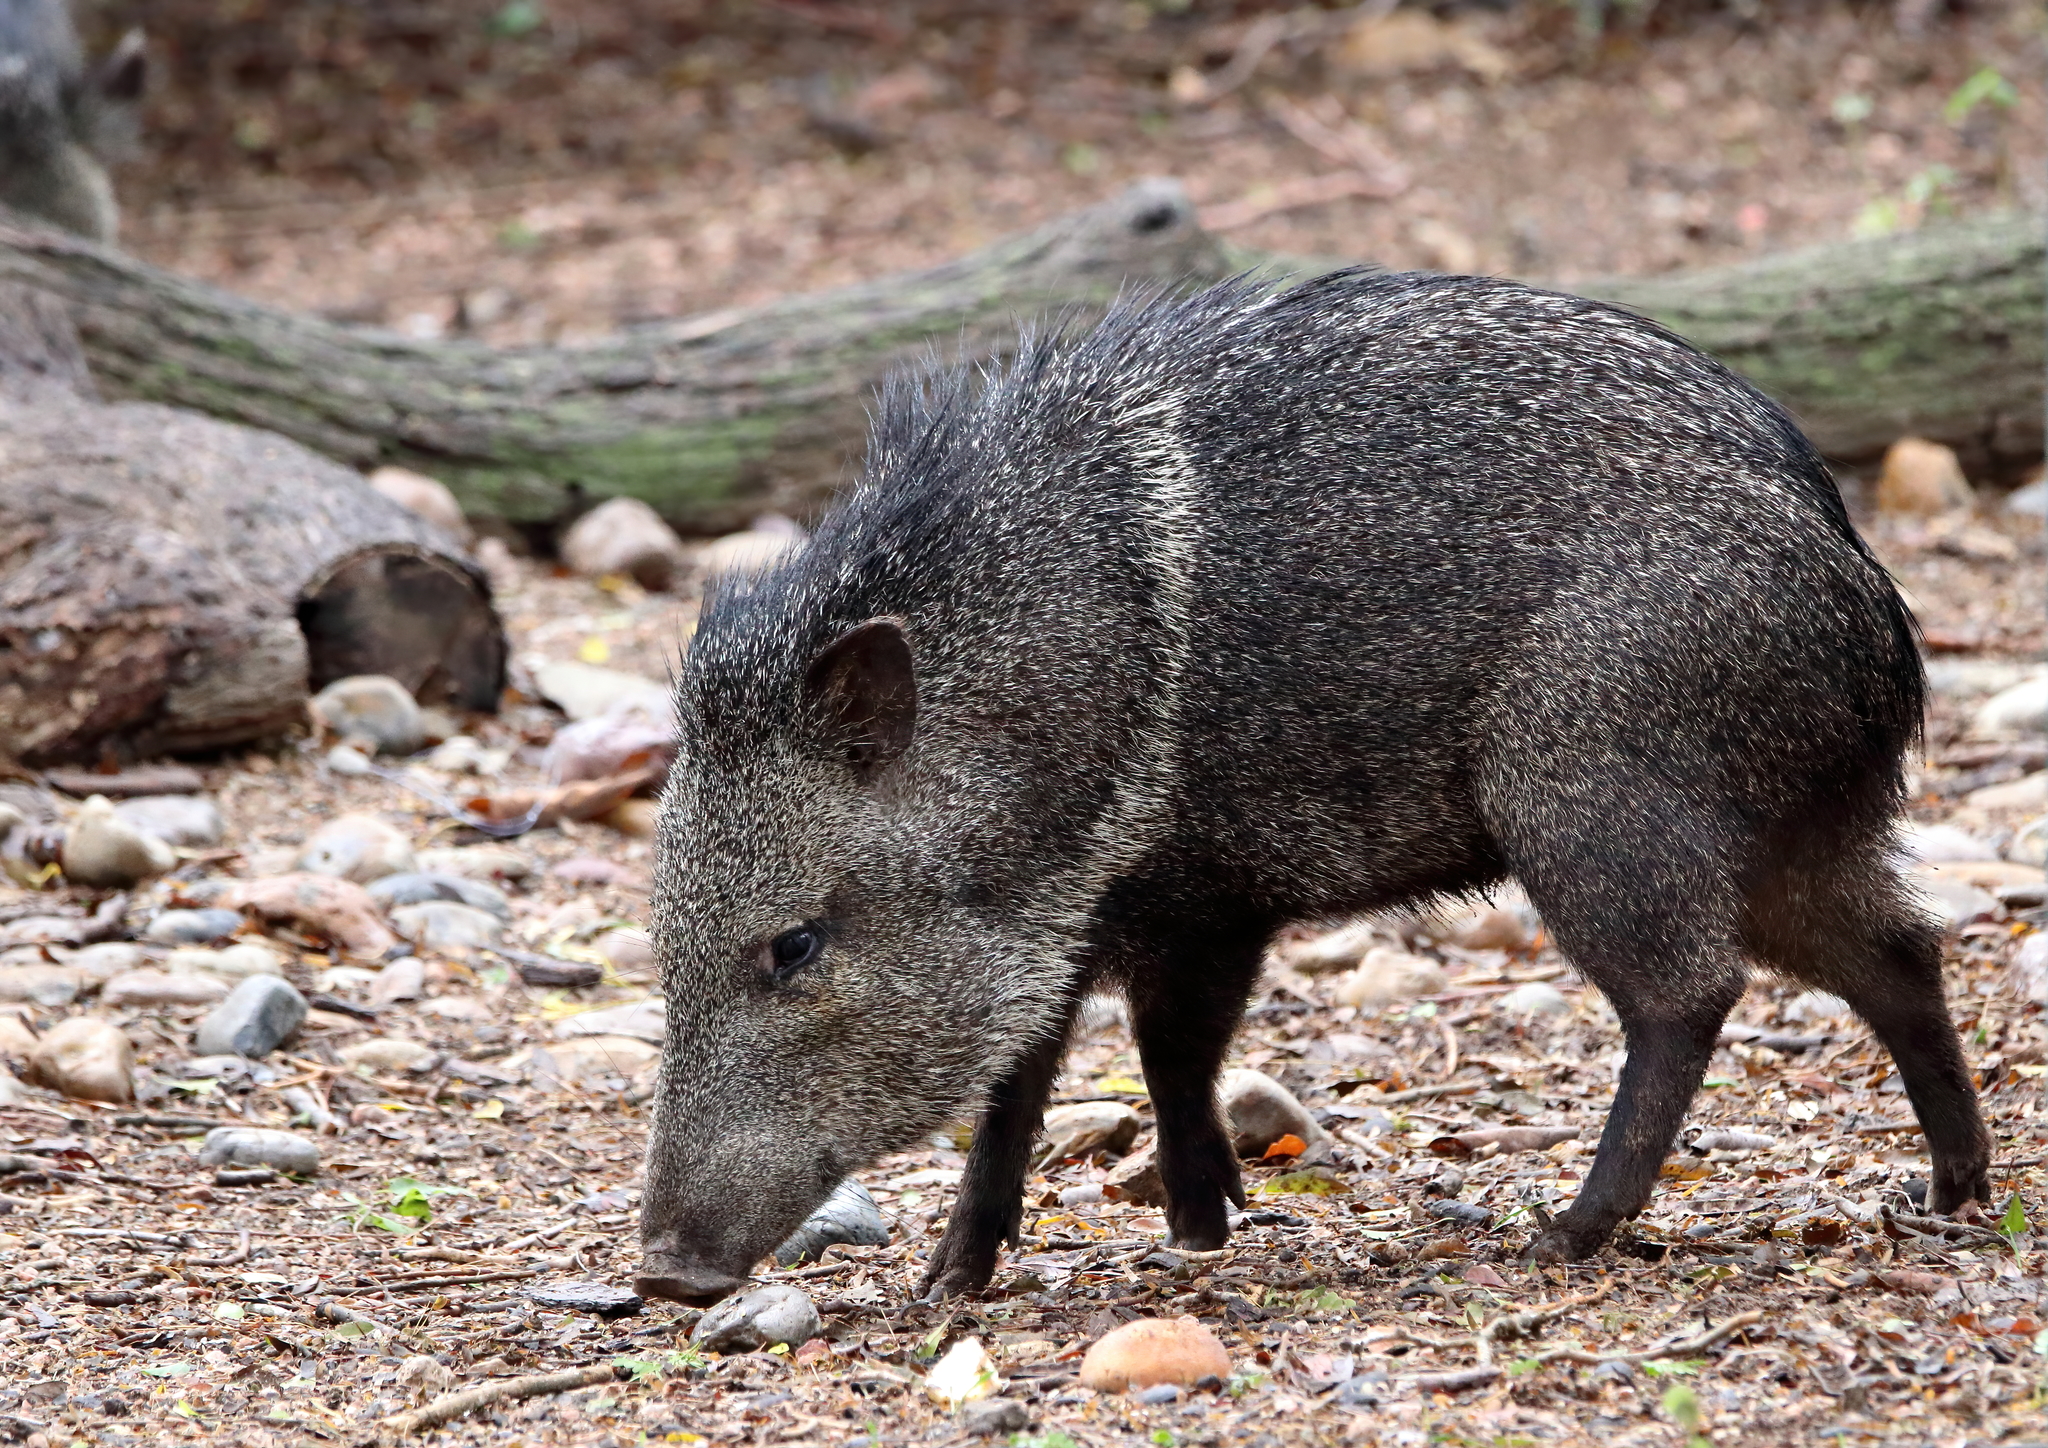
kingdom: Animalia
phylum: Chordata
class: Mammalia
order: Artiodactyla
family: Tayassuidae
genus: Pecari
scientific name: Pecari tajacu
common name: Collared peccary
